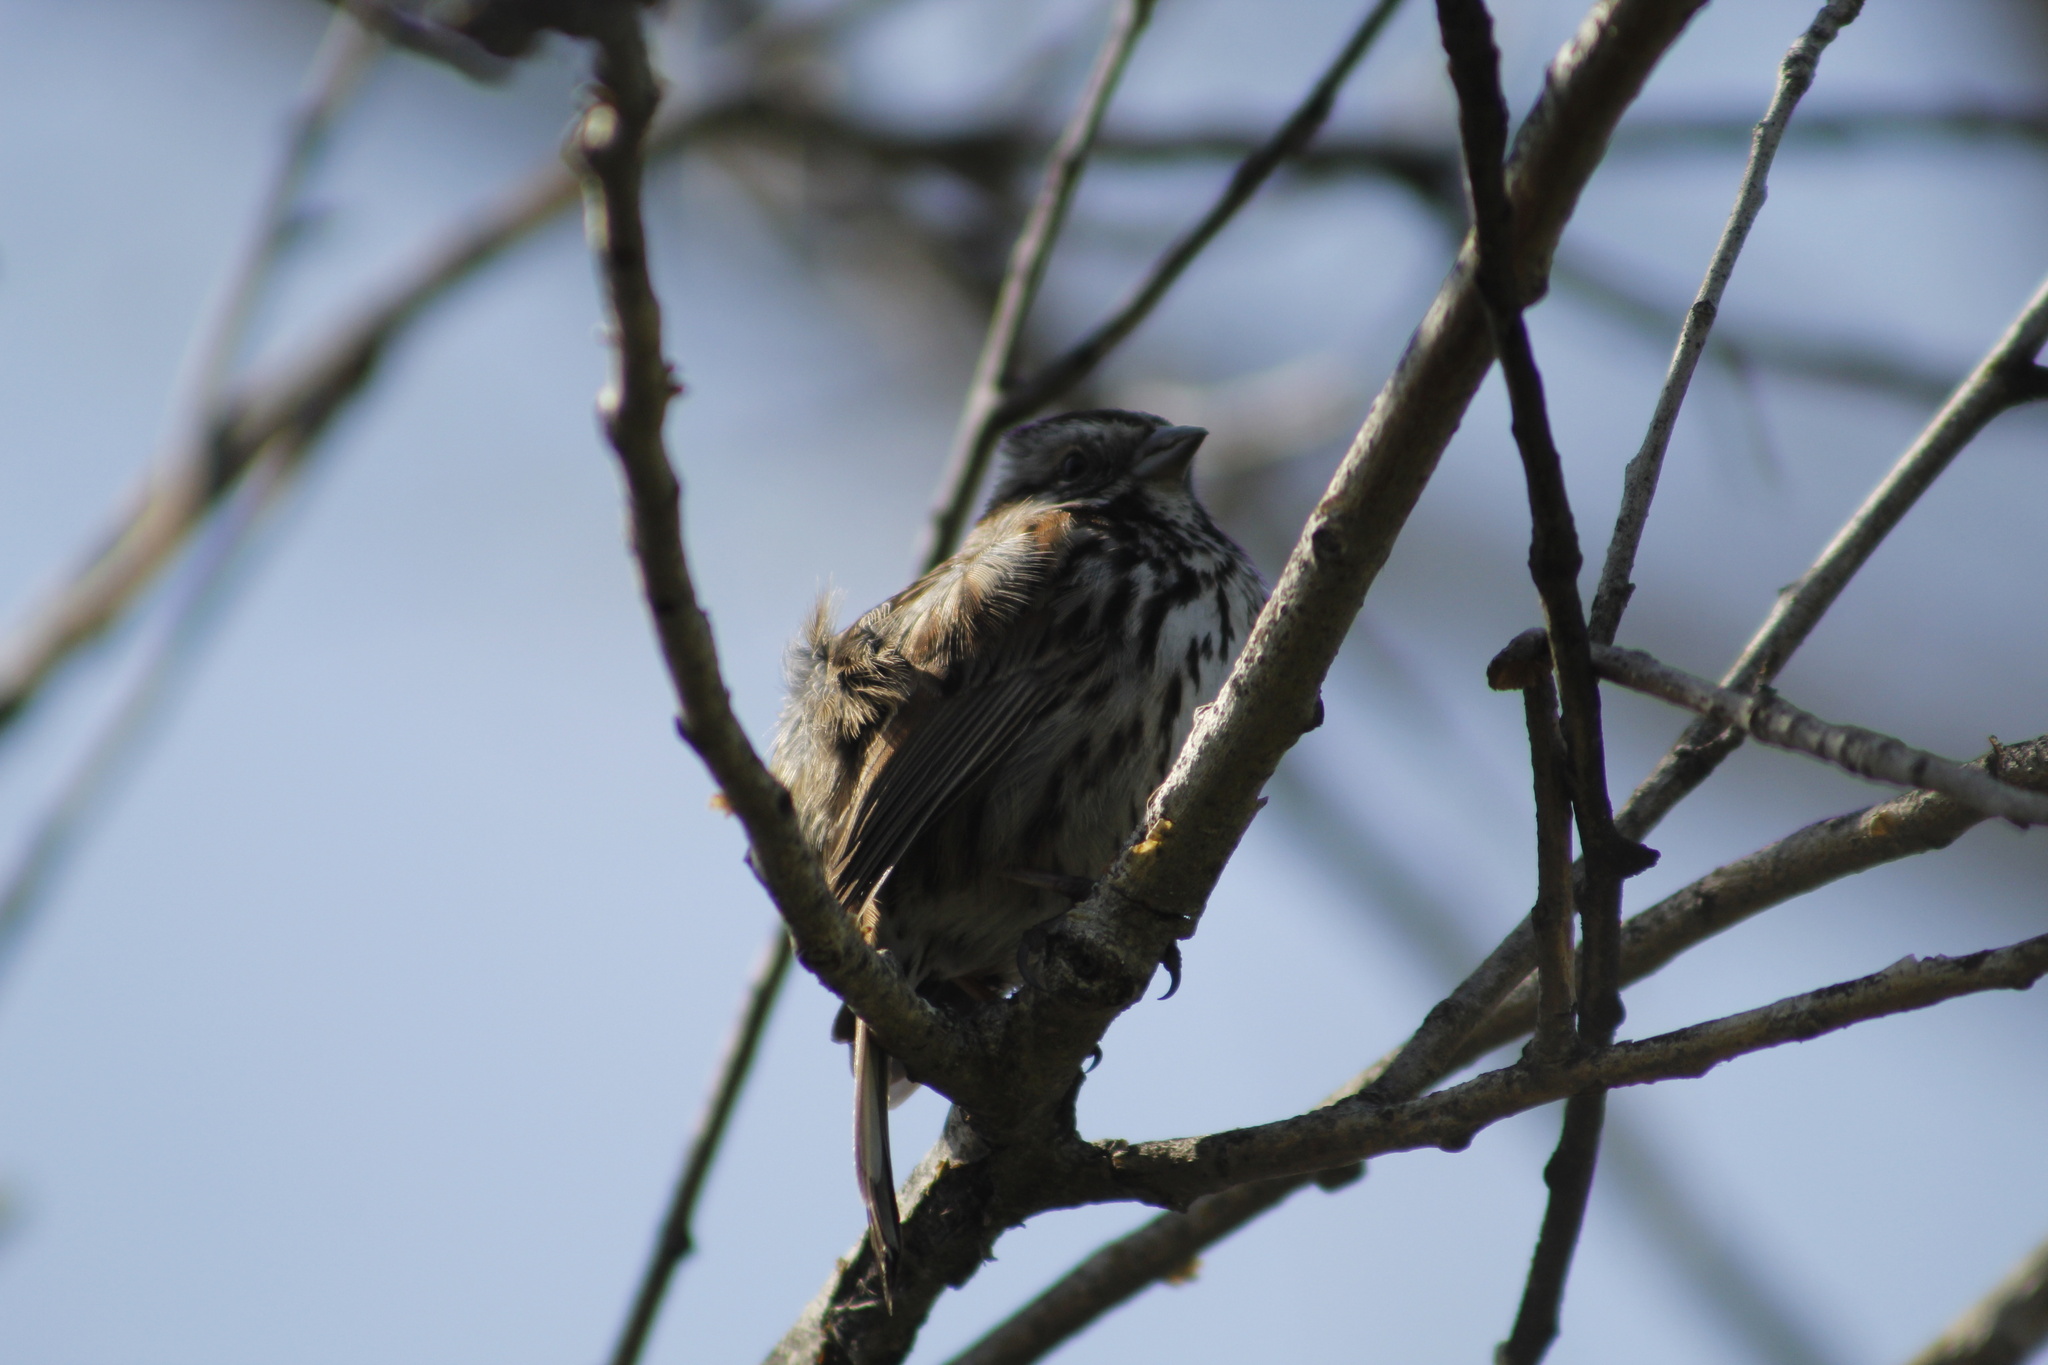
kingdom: Animalia
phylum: Chordata
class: Aves
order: Passeriformes
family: Passerellidae
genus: Melospiza
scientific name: Melospiza melodia
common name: Song sparrow
